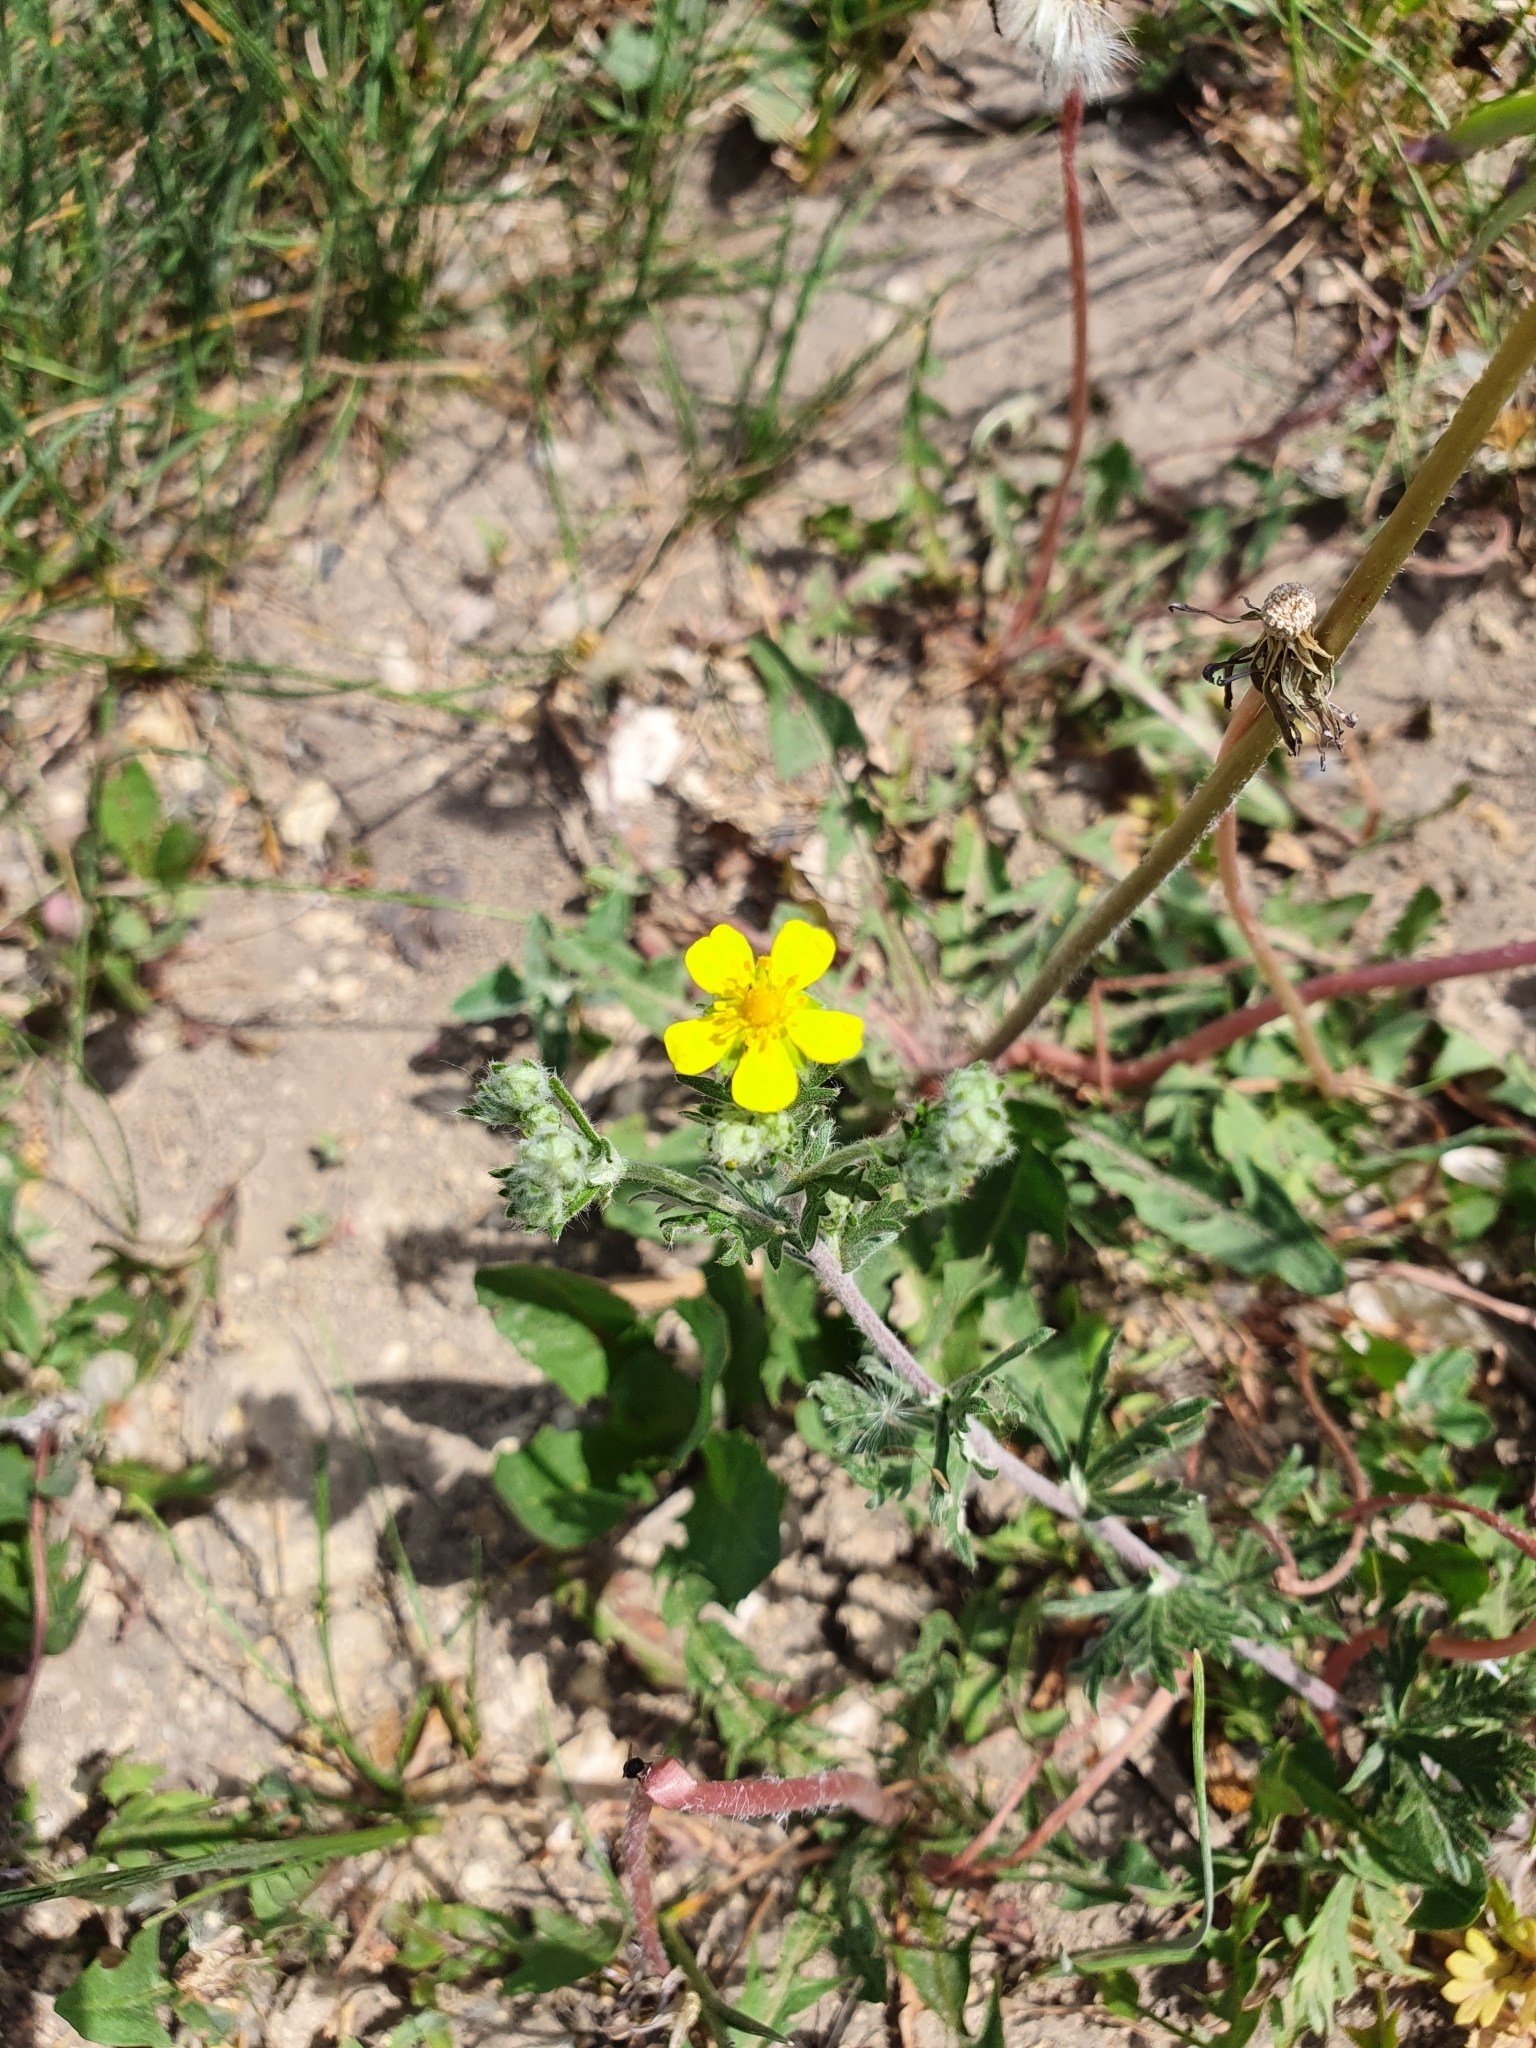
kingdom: Plantae
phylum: Tracheophyta
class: Magnoliopsida
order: Rosales
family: Rosaceae
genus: Potentilla
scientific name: Potentilla argentea
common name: Hoary cinquefoil
